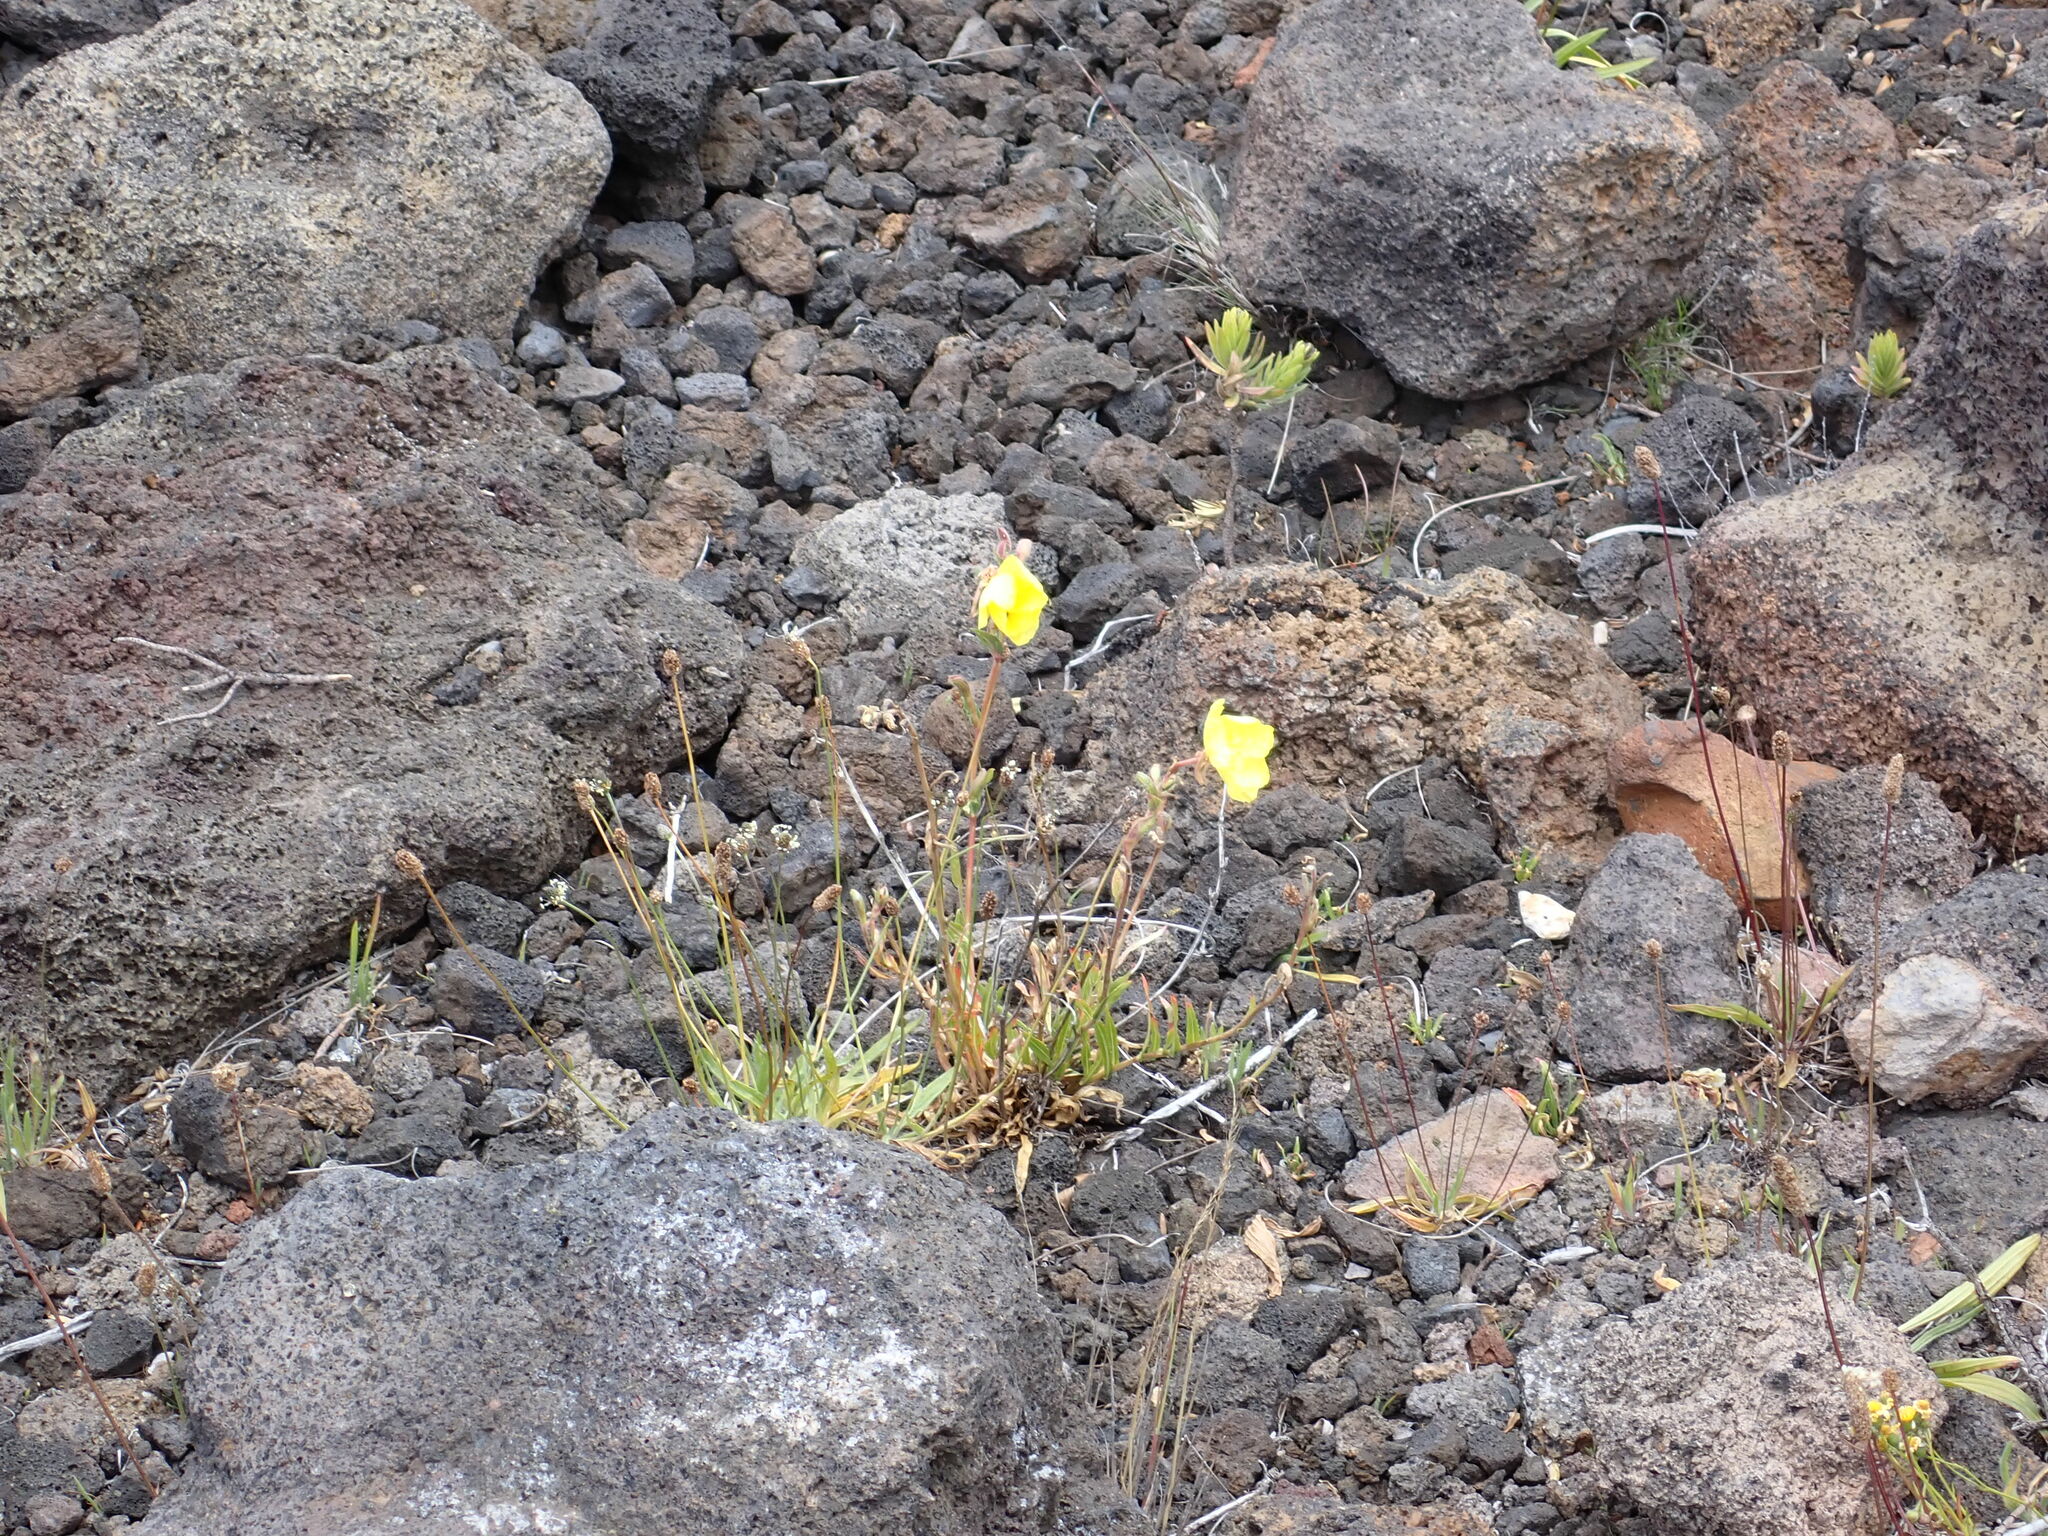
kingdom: Plantae
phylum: Tracheophyta
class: Magnoliopsida
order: Myrtales
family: Onagraceae
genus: Oenothera
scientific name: Oenothera stricta
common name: Fragrant evening-primrose
